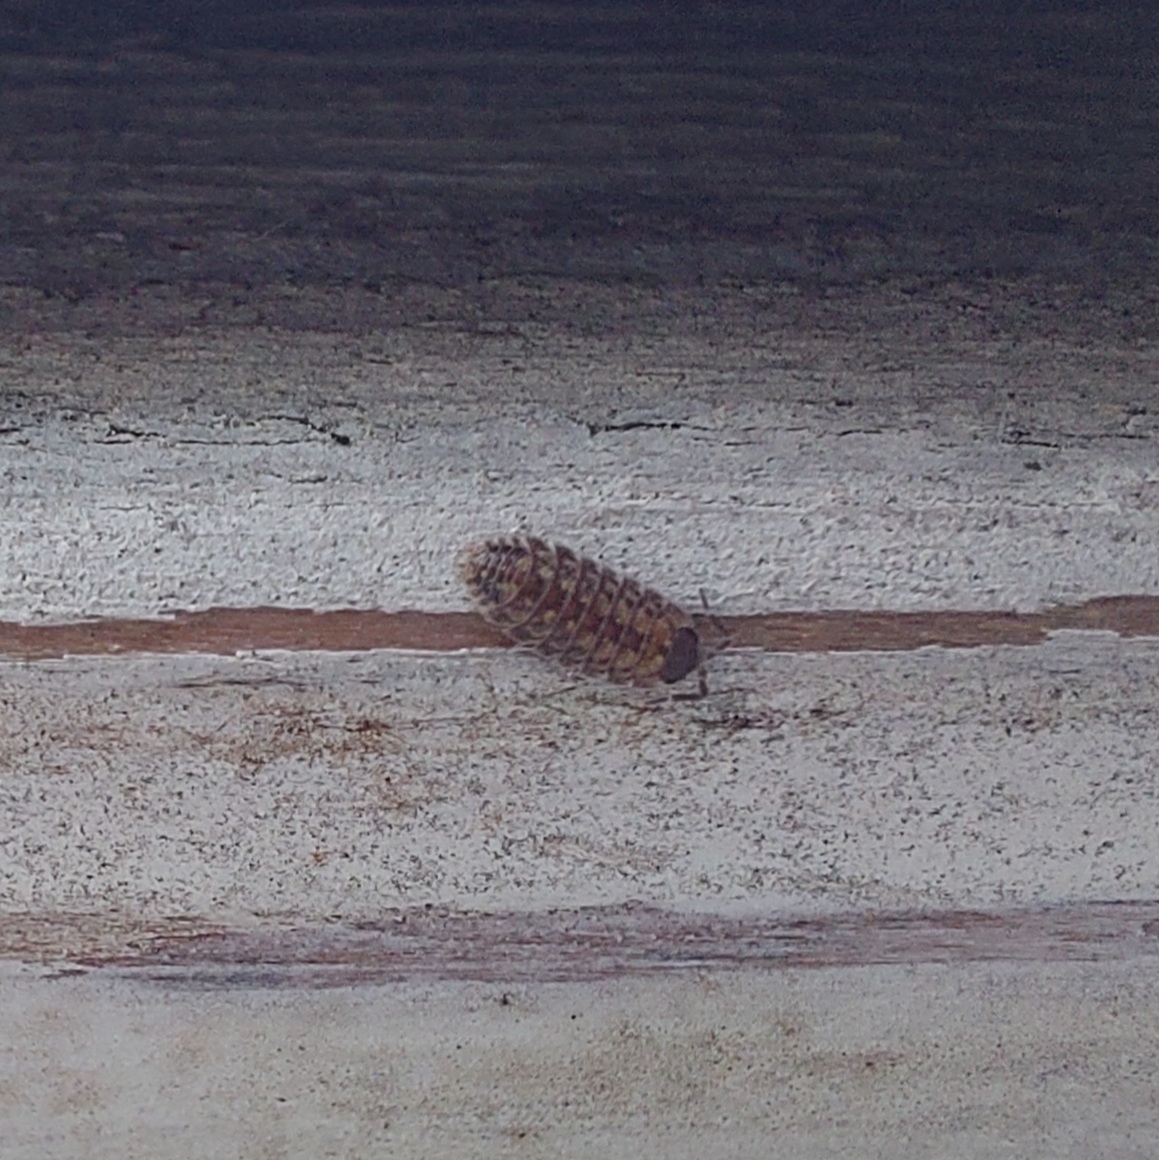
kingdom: Animalia
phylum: Arthropoda
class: Malacostraca
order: Isopoda
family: Porcellionidae
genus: Porcellio
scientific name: Porcellio spinicornis
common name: Painted woodlouse
